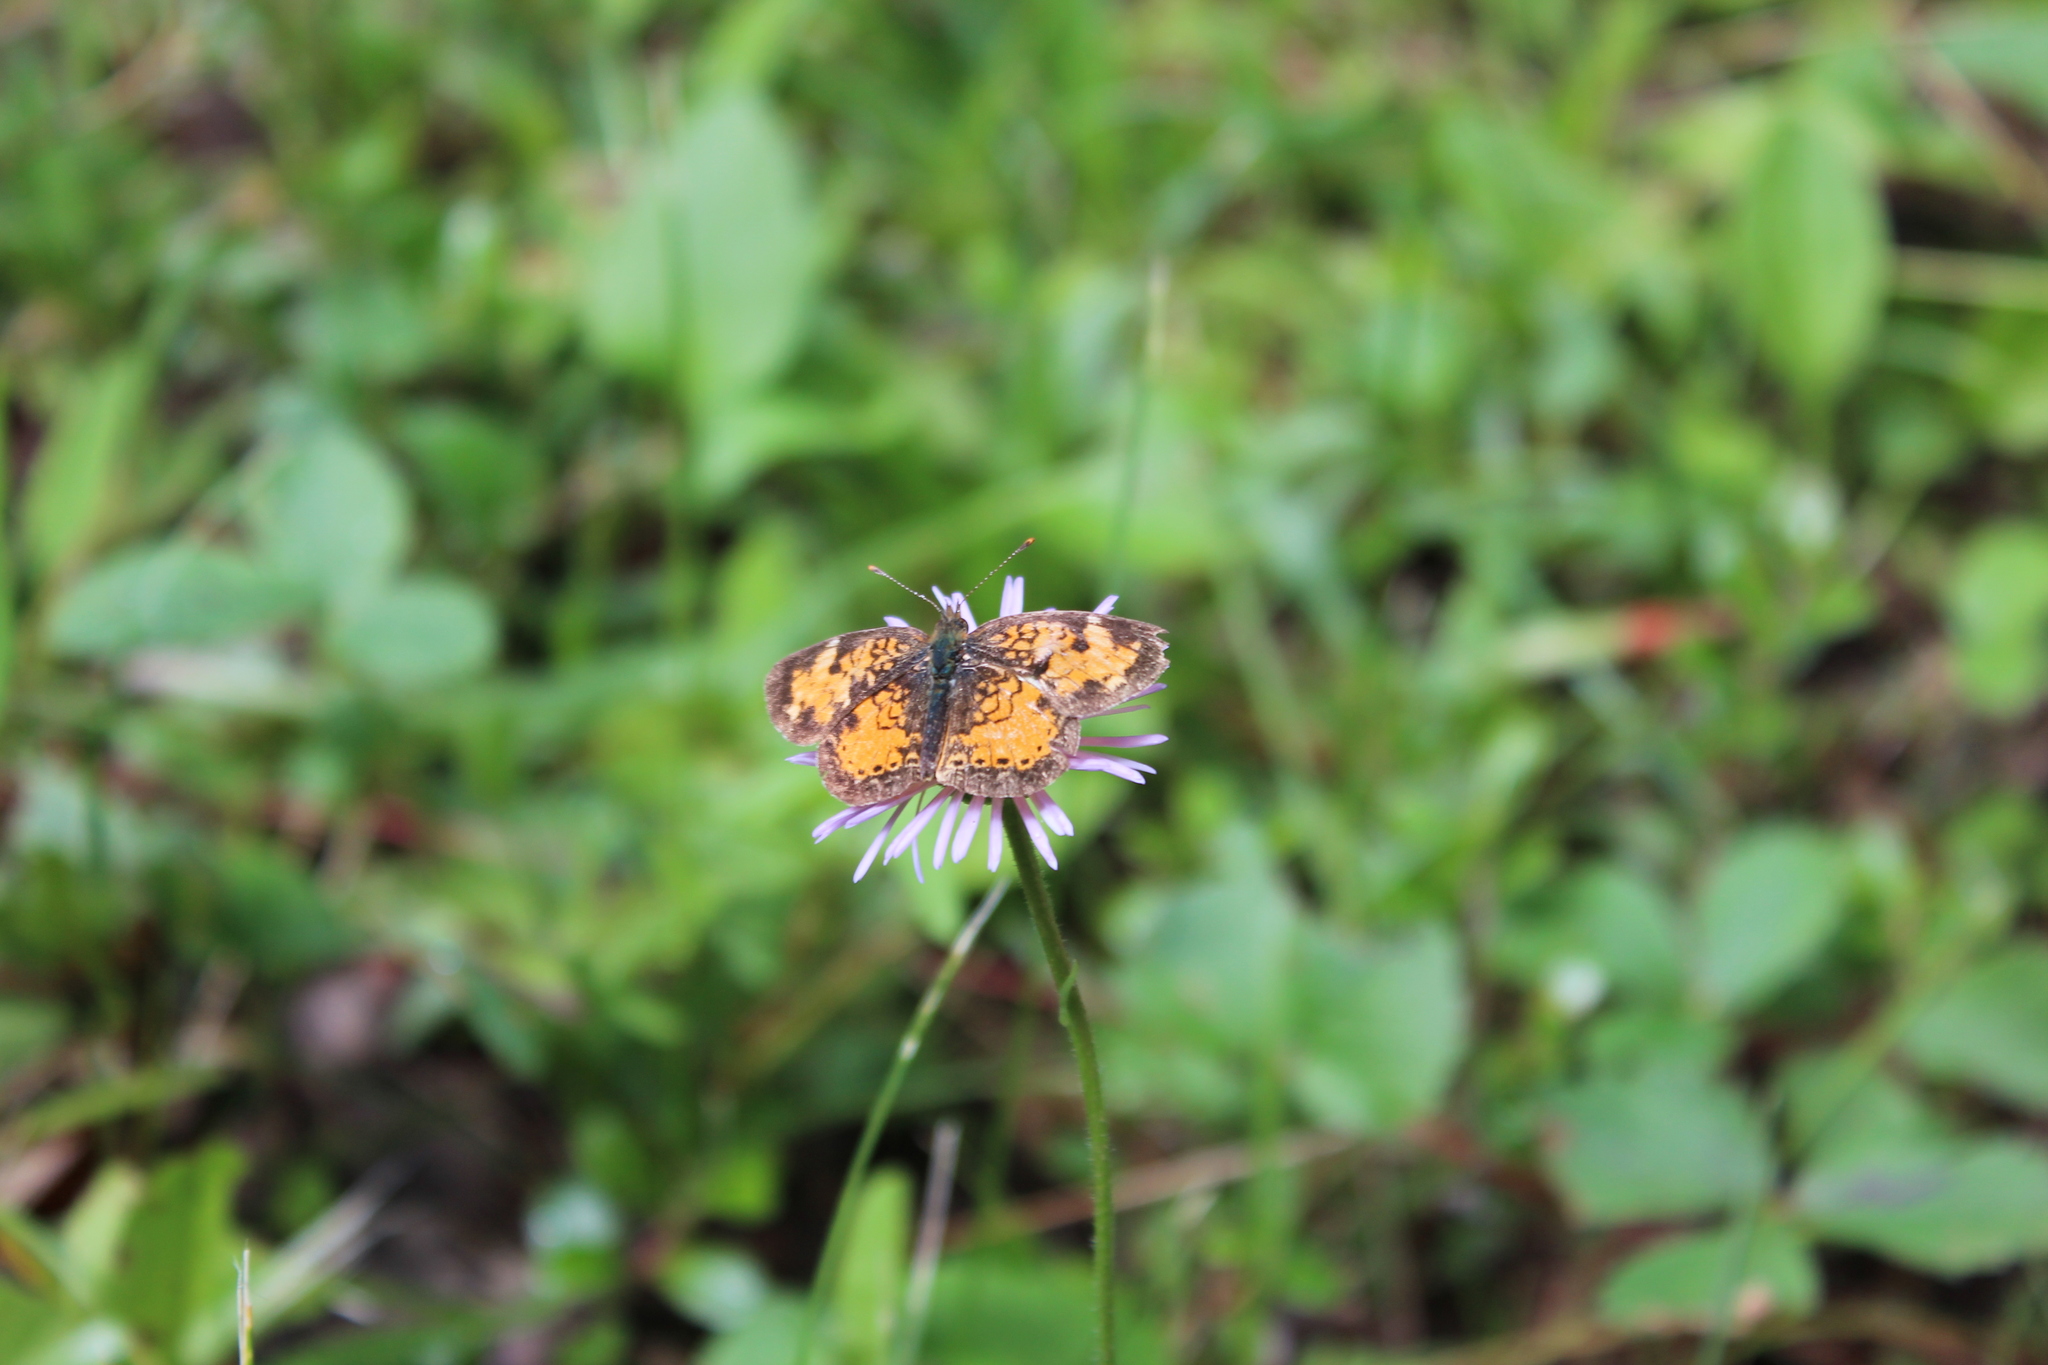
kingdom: Animalia
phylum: Arthropoda
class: Insecta
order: Lepidoptera
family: Nymphalidae
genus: Phyciodes
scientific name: Phyciodes tharos
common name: Pearl crescent
